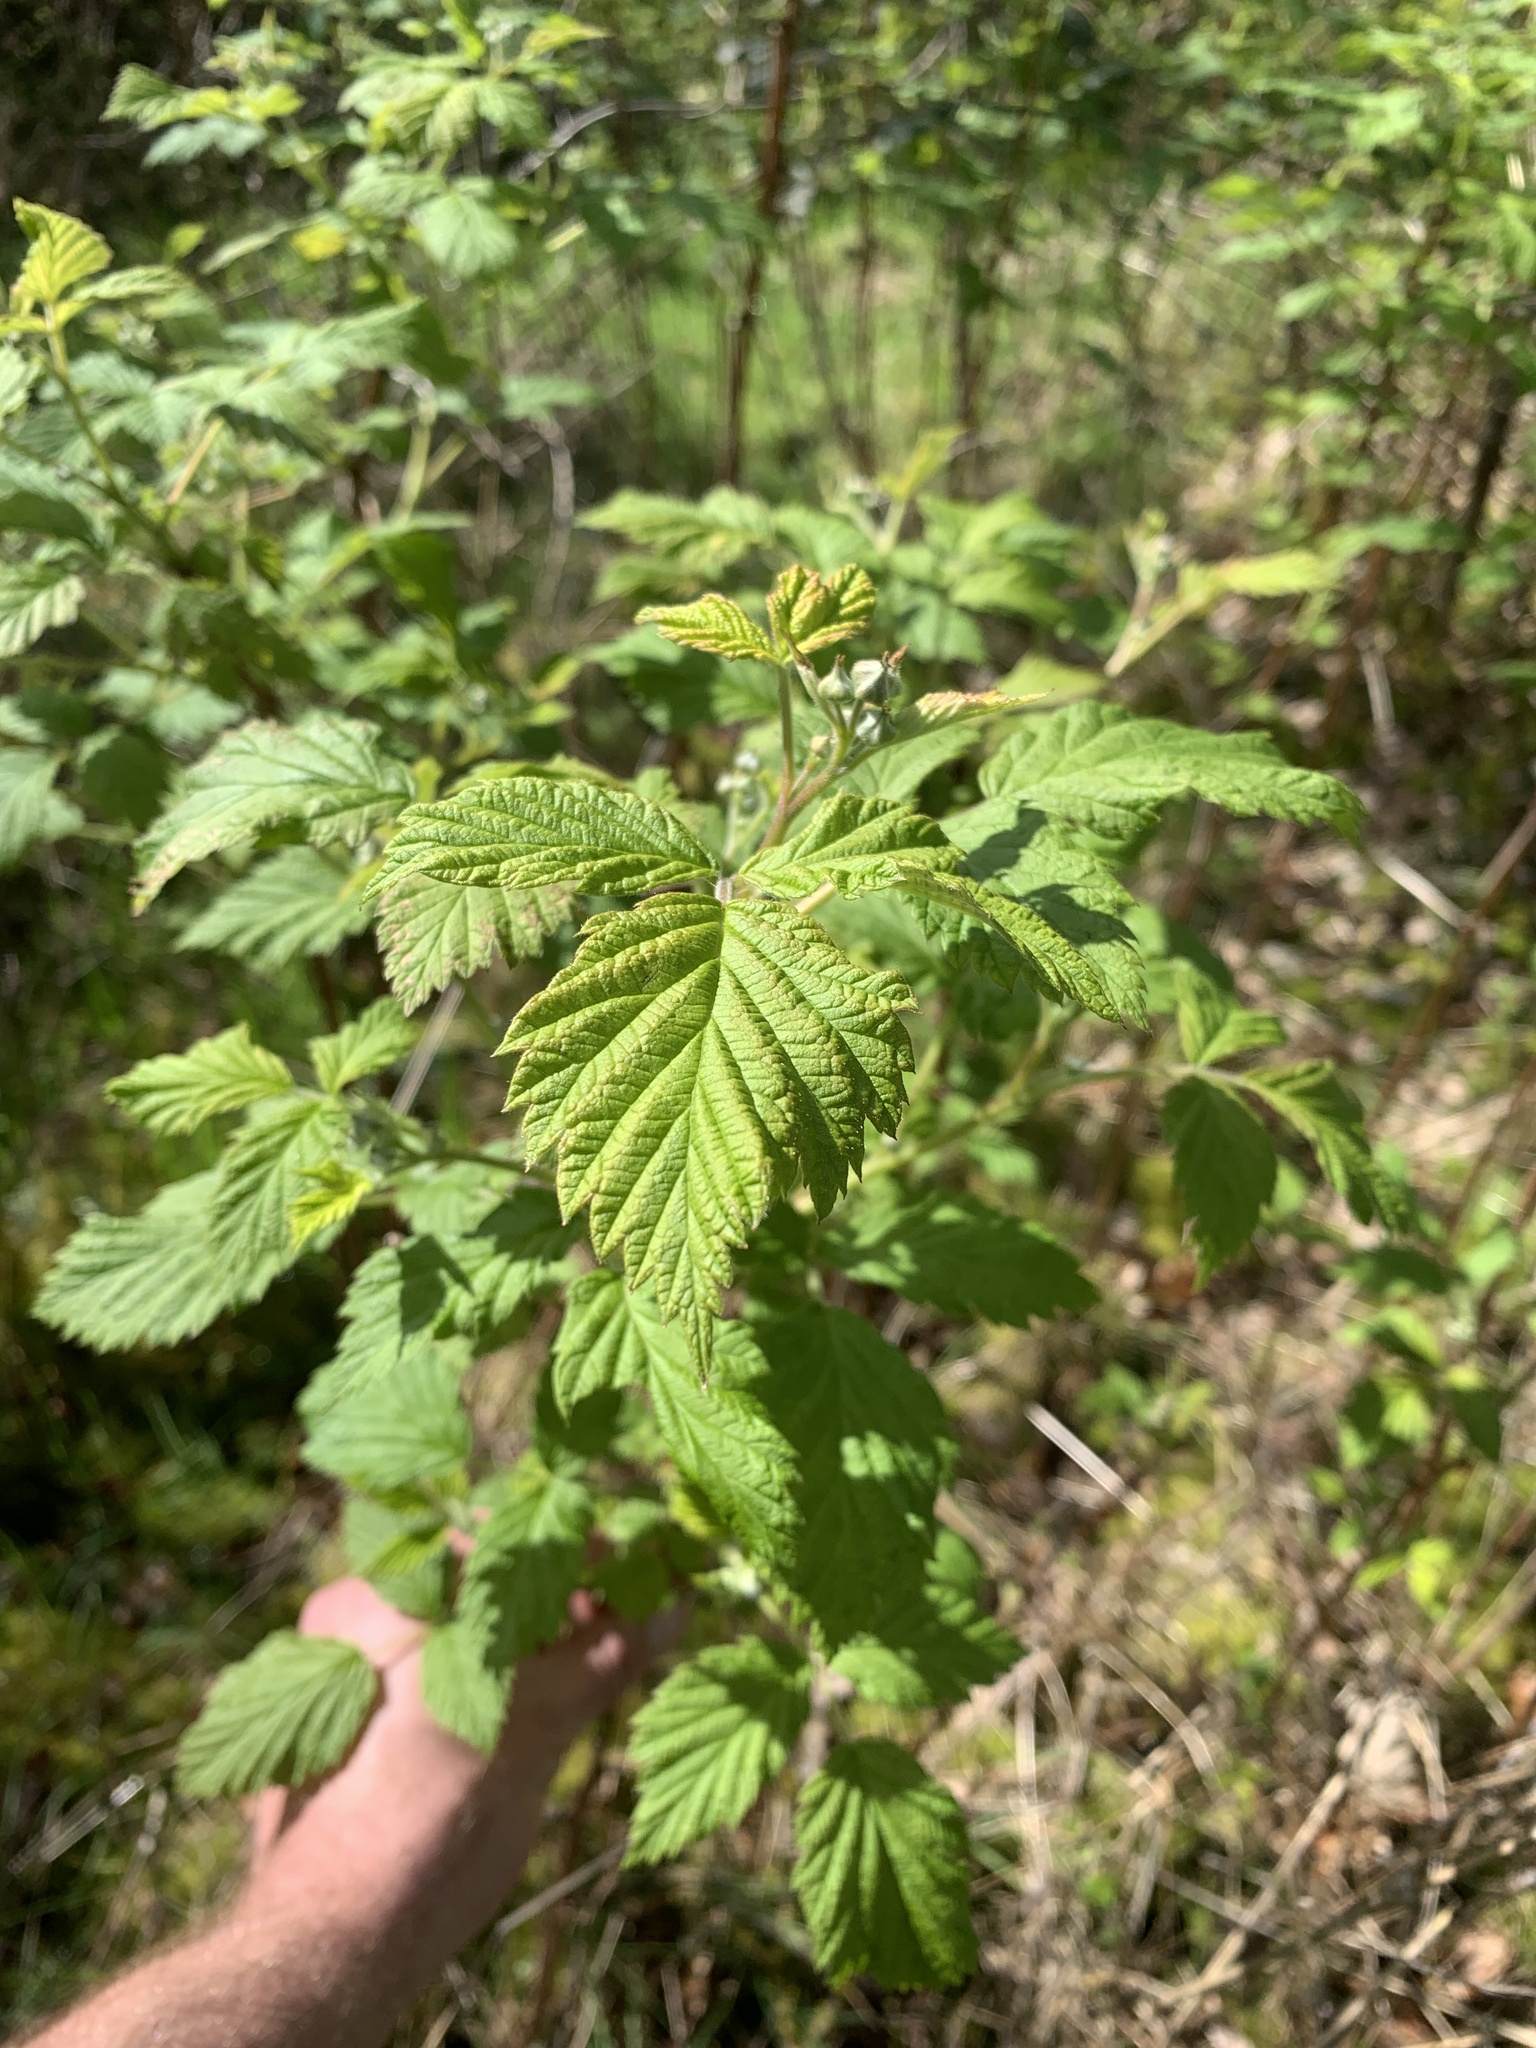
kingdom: Plantae
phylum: Tracheophyta
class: Magnoliopsida
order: Rosales
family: Rosaceae
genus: Rubus
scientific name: Rubus fruticosus
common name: Blackberry, bramble
